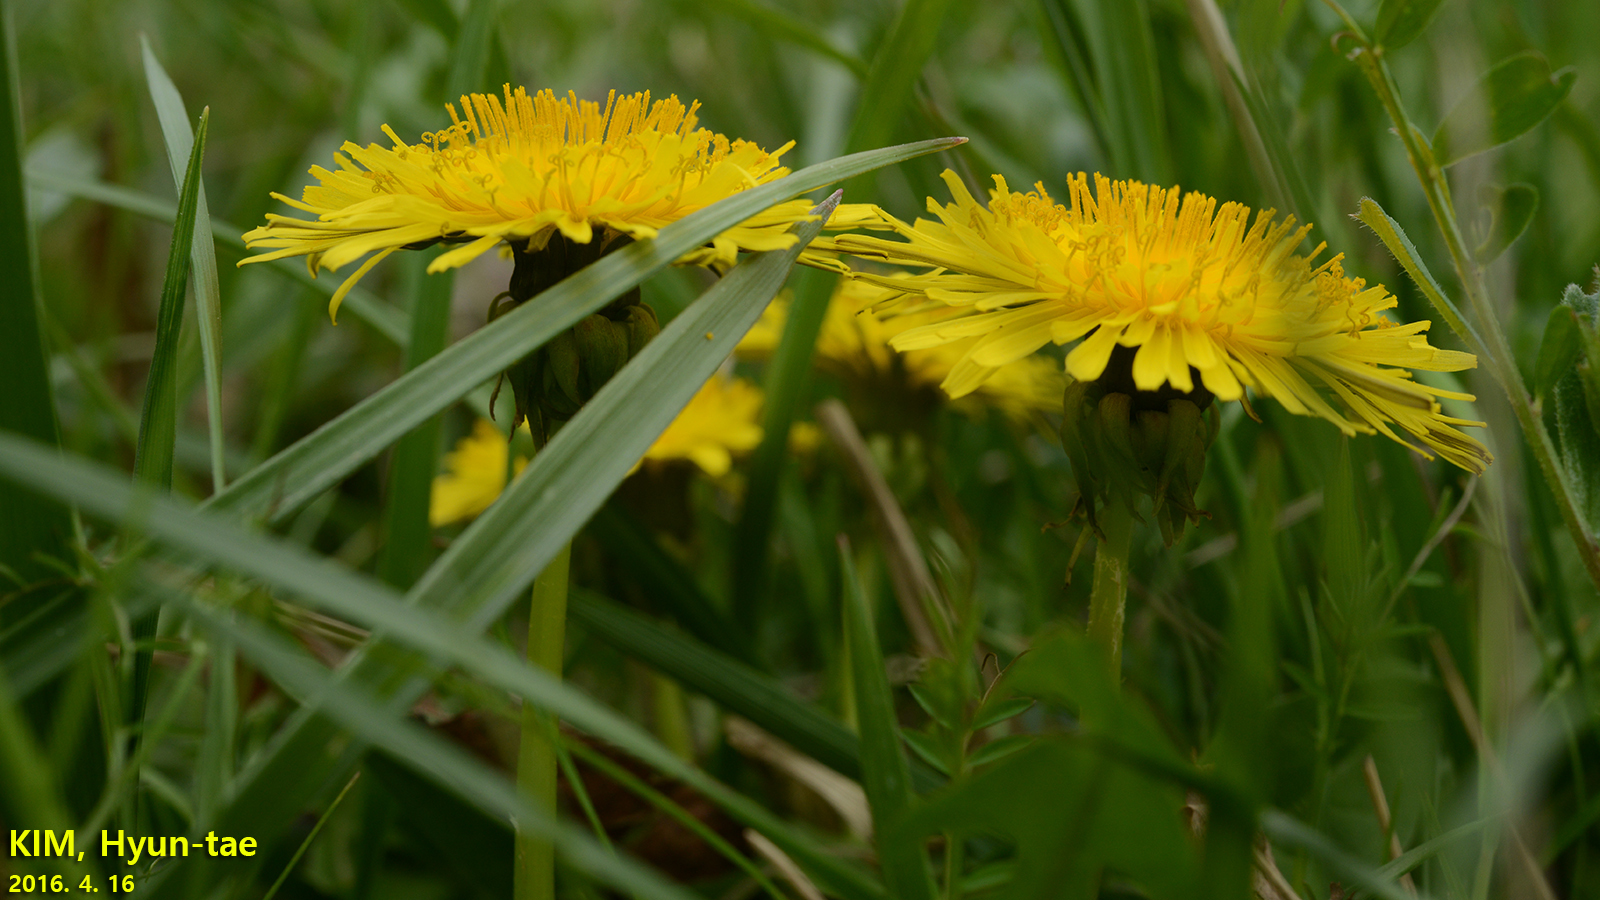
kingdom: Plantae
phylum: Tracheophyta
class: Magnoliopsida
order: Asterales
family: Asteraceae
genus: Taraxacum
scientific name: Taraxacum officinale
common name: Common dandelion
